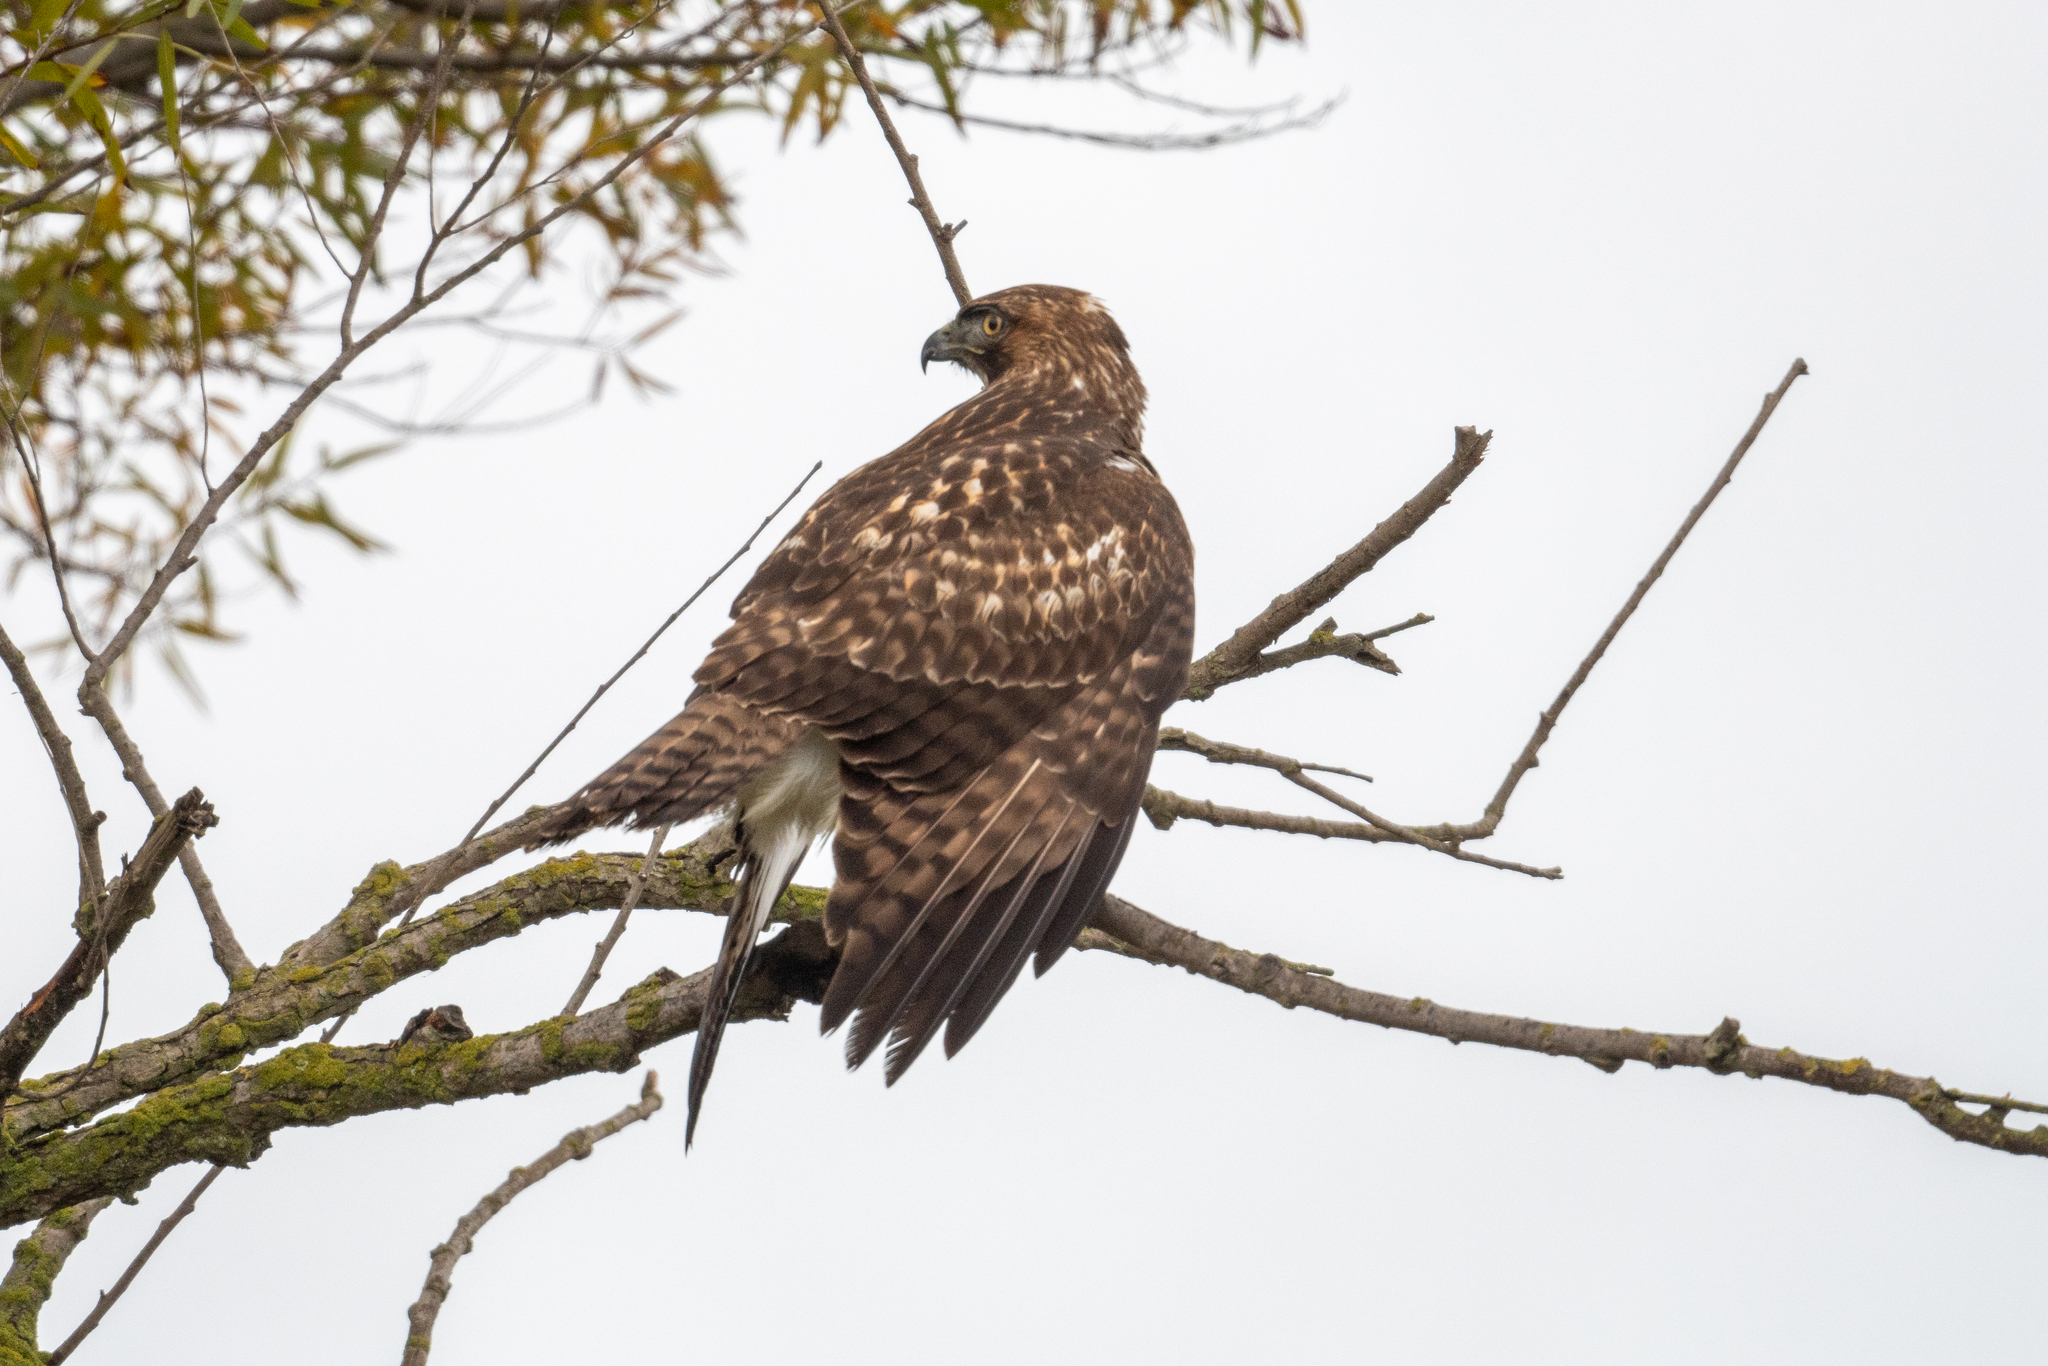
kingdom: Animalia
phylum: Chordata
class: Aves
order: Accipitriformes
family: Accipitridae
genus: Buteo
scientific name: Buteo jamaicensis
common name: Red-tailed hawk
